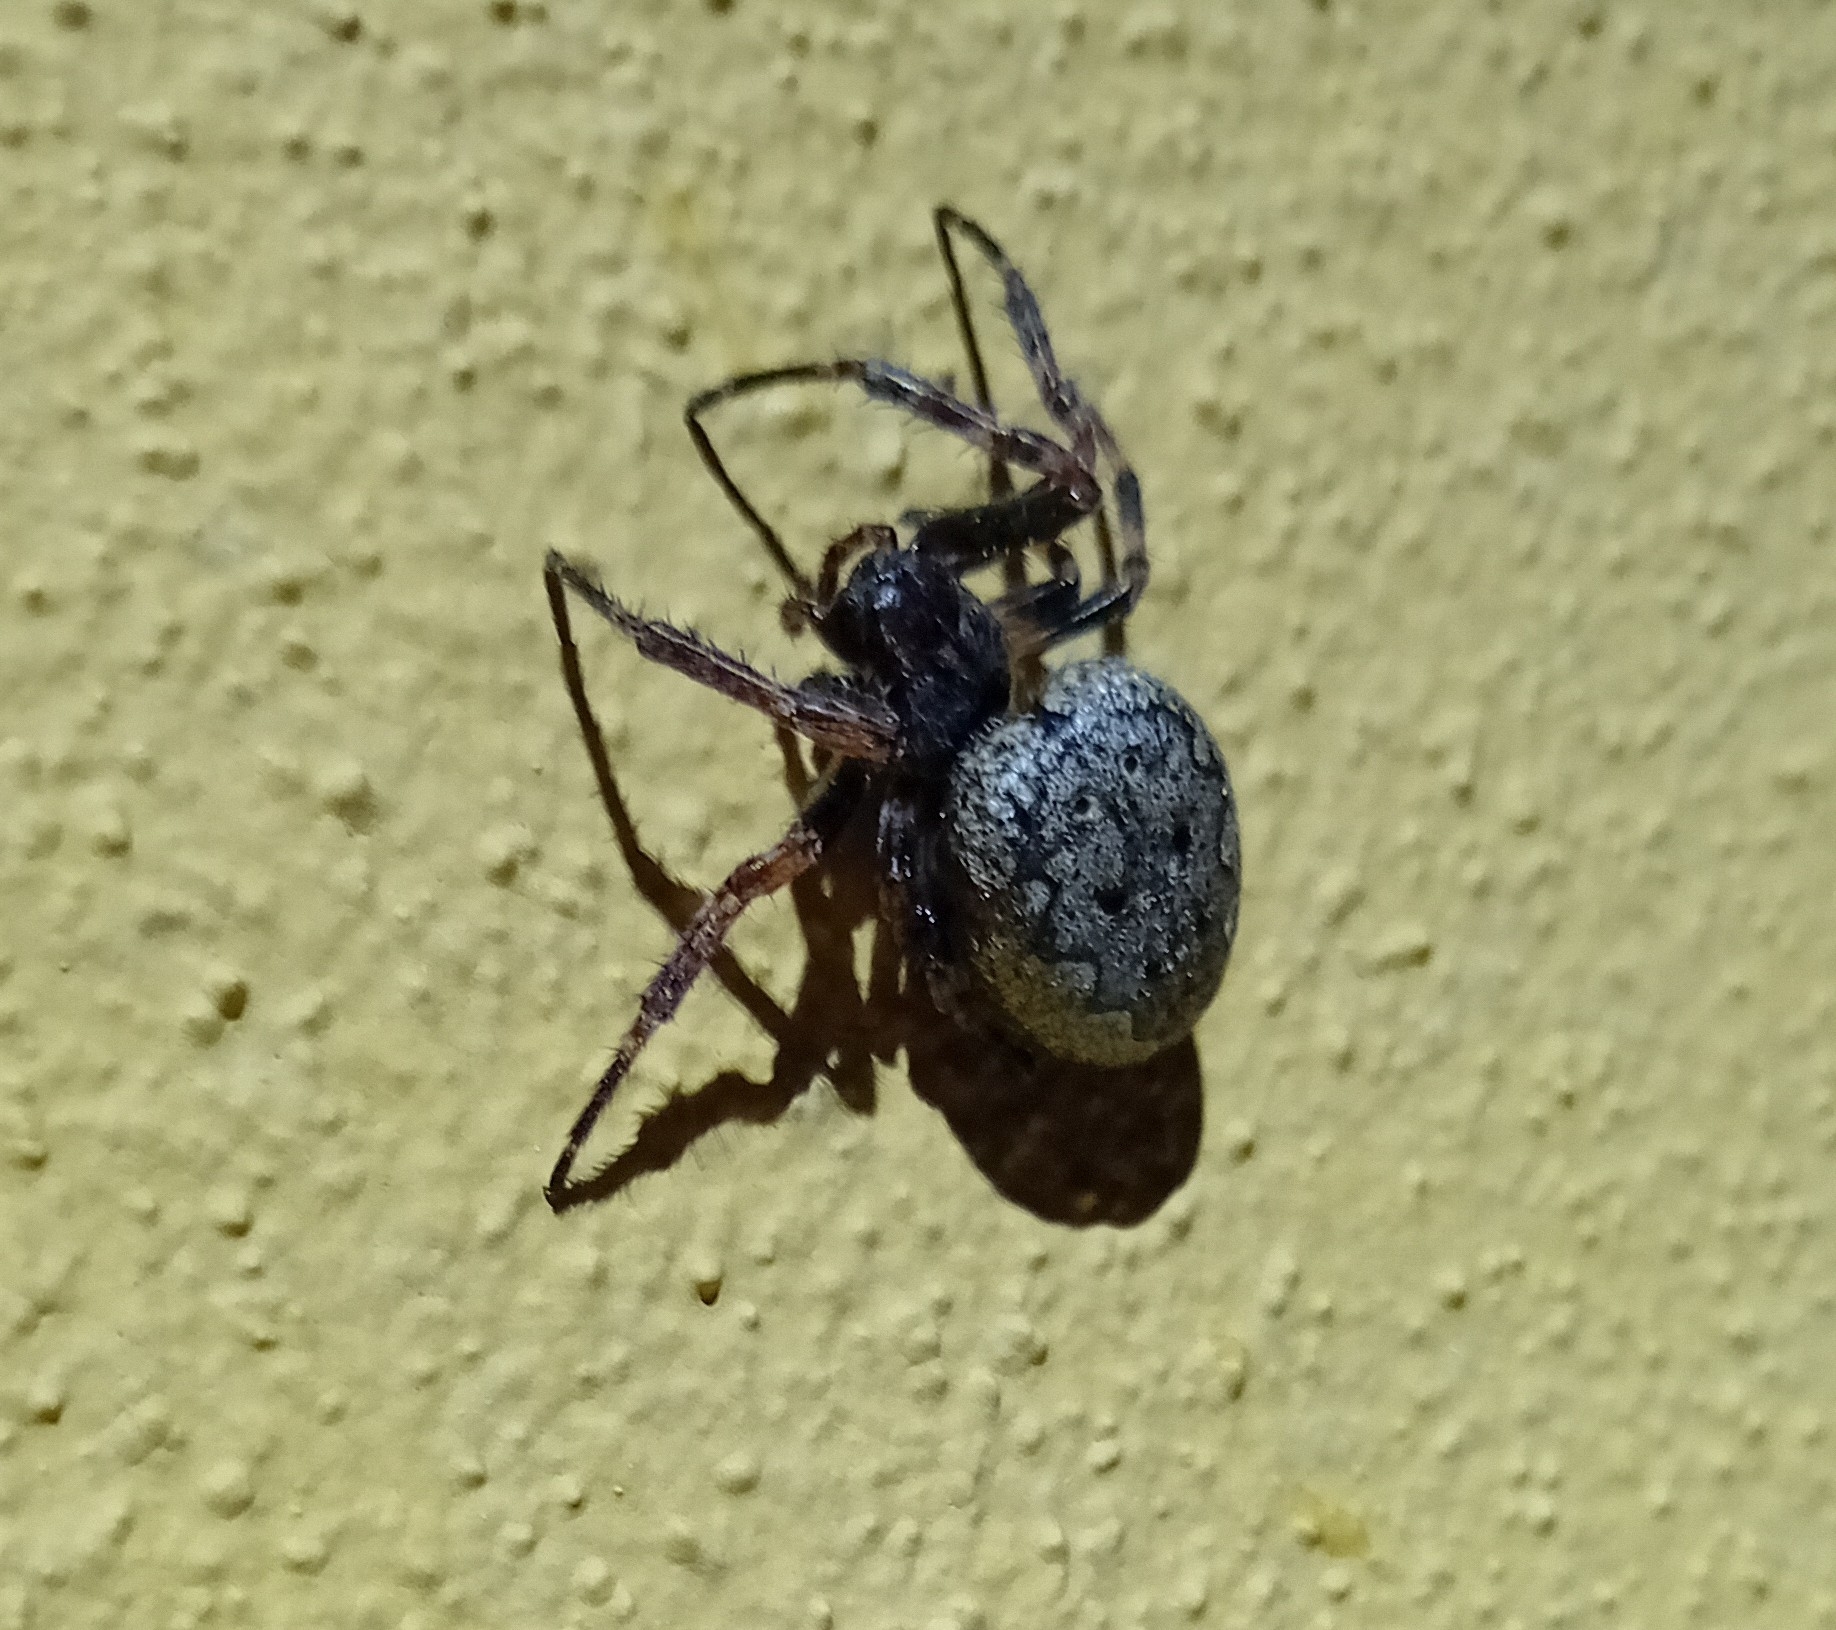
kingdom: Animalia
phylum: Arthropoda
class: Arachnida
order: Araneae
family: Araneidae
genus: Nuctenea
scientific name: Nuctenea umbratica
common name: Toad spider
